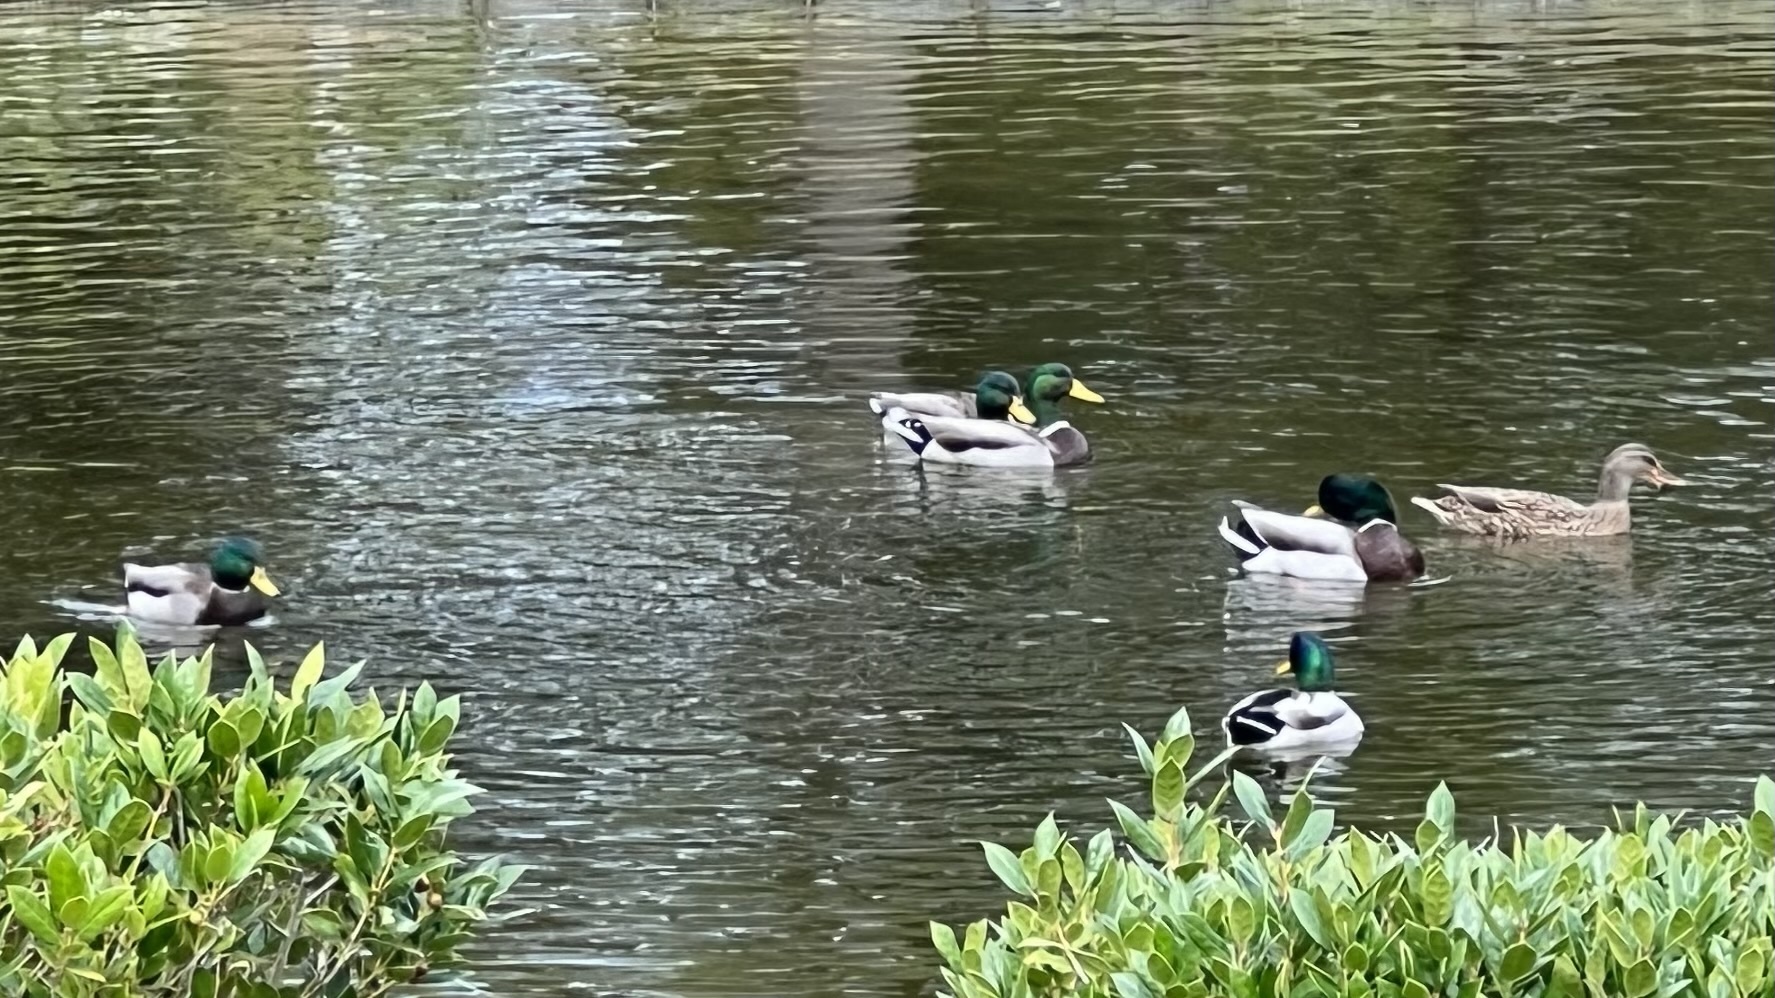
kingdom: Animalia
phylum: Chordata
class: Aves
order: Anseriformes
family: Anatidae
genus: Anas
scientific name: Anas platyrhynchos
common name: Mallard
